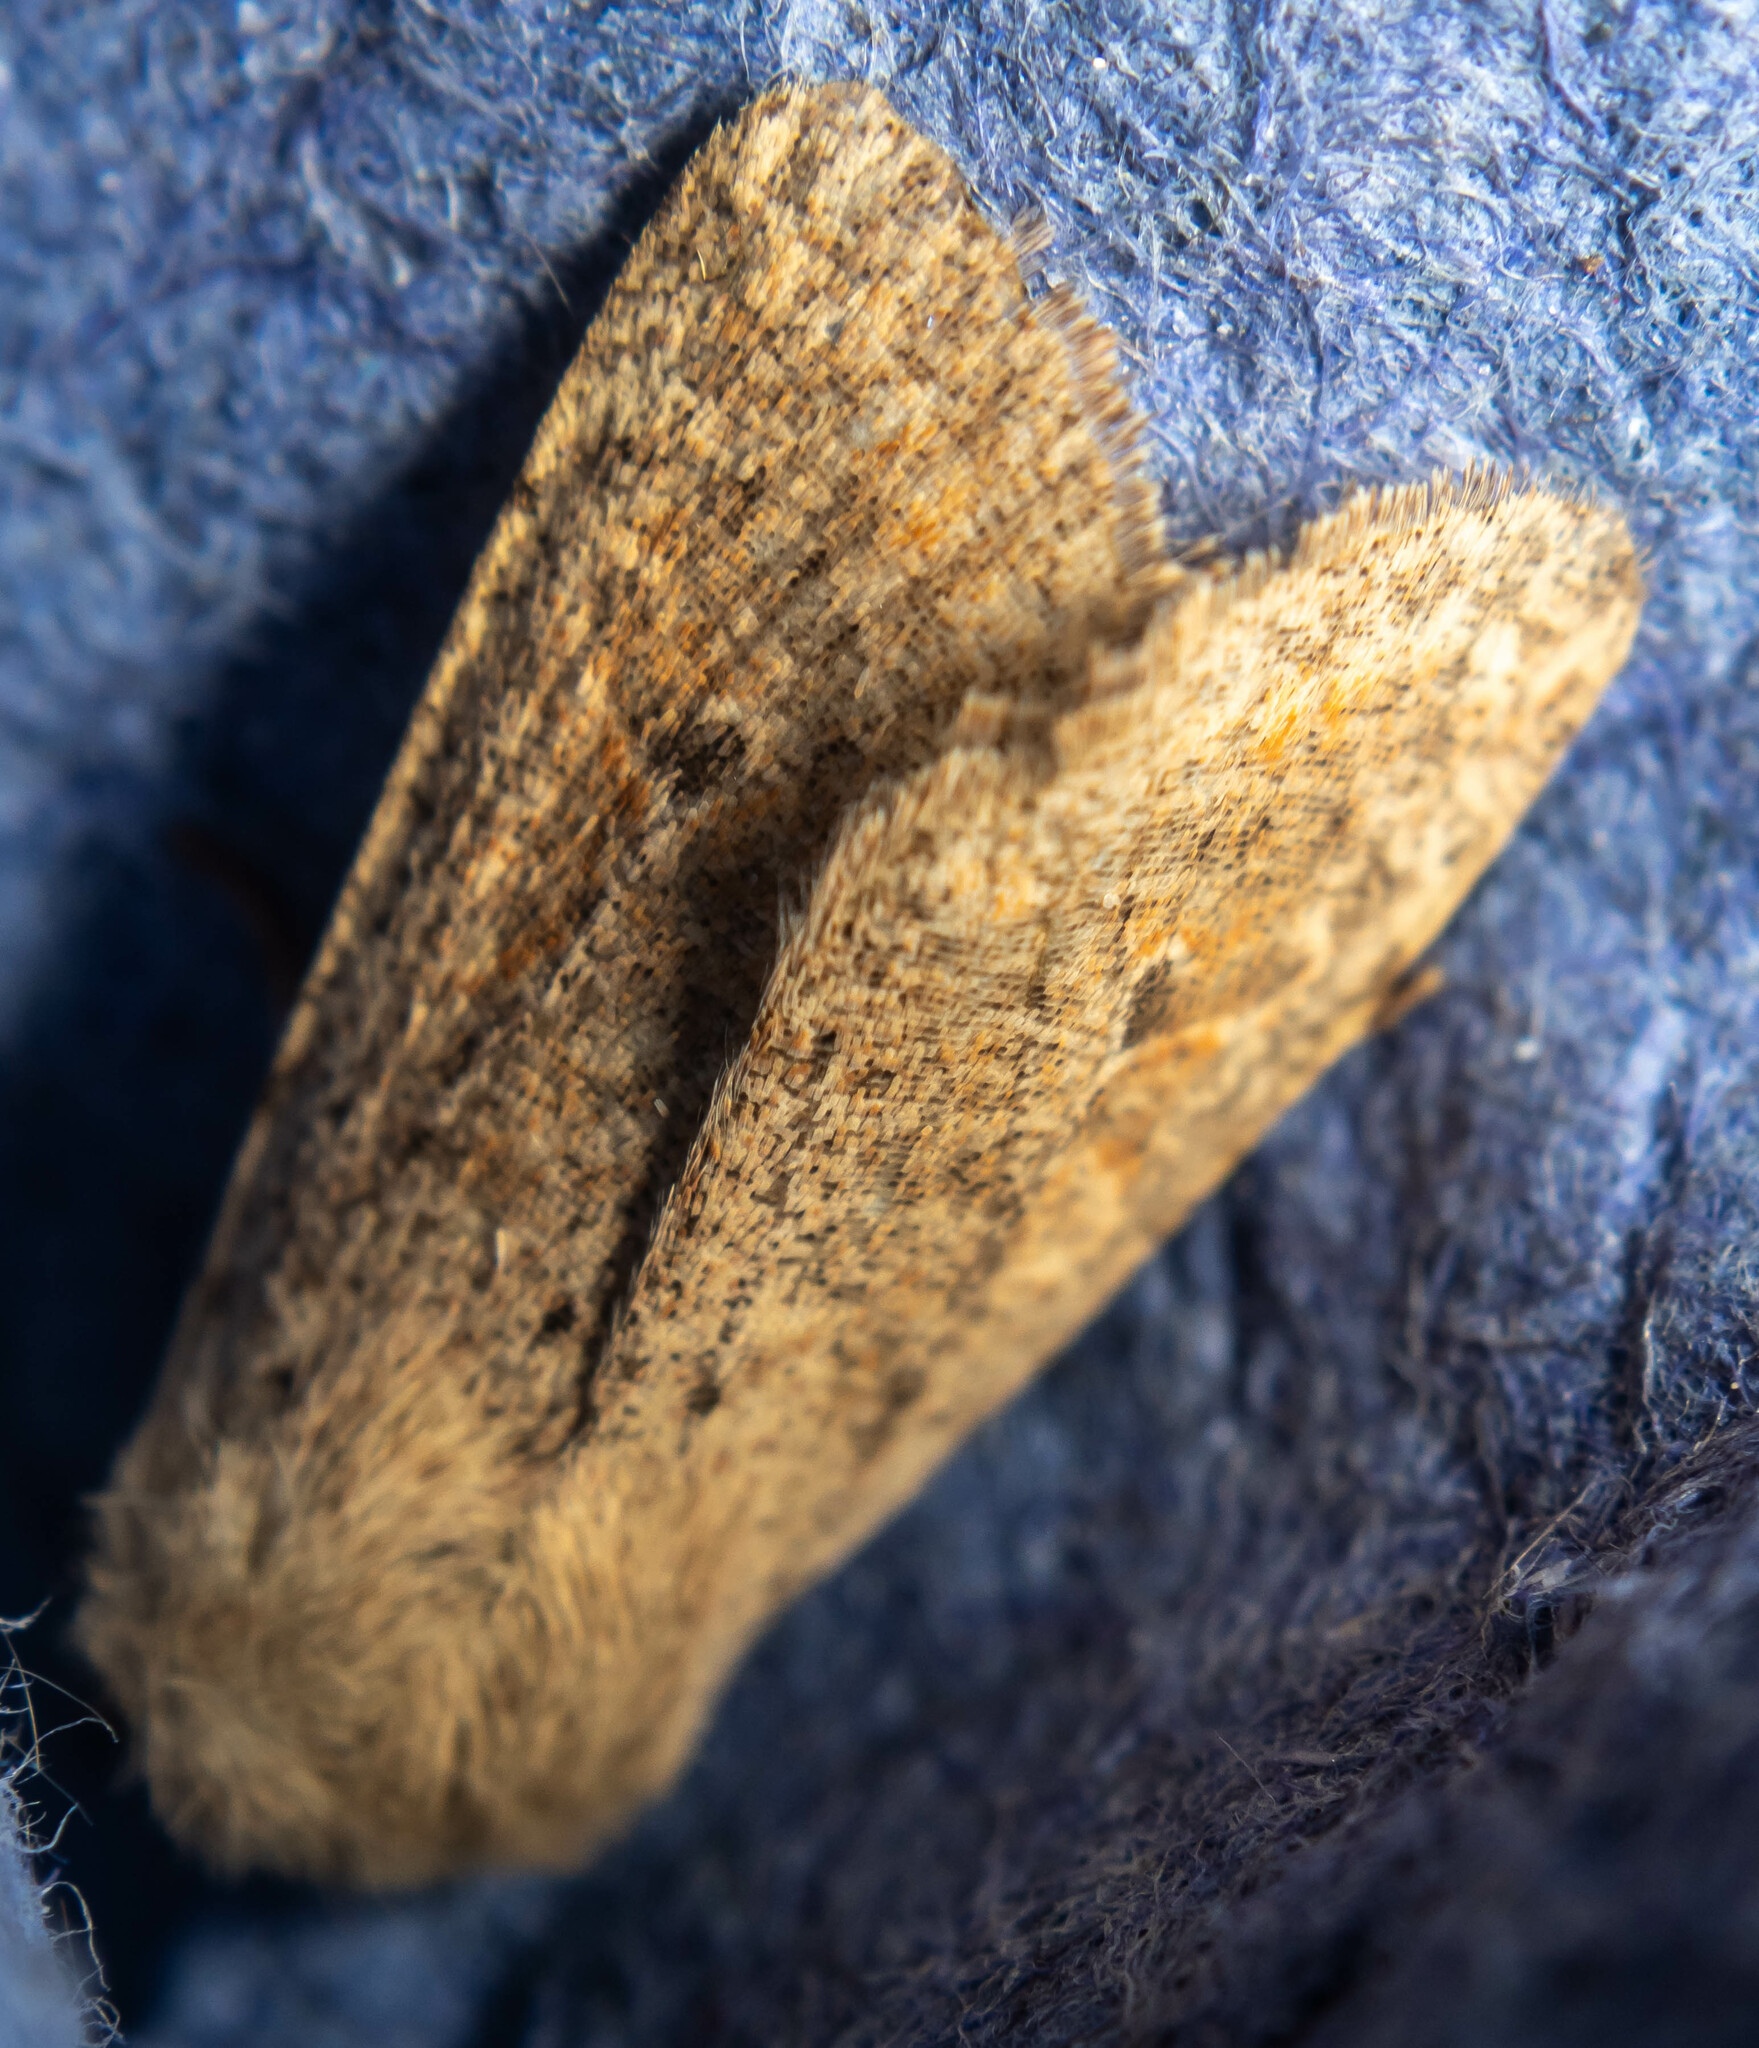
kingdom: Animalia
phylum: Arthropoda
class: Insecta
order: Lepidoptera
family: Noctuidae
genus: Orthosia
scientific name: Orthosia cruda
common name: Small quaker
